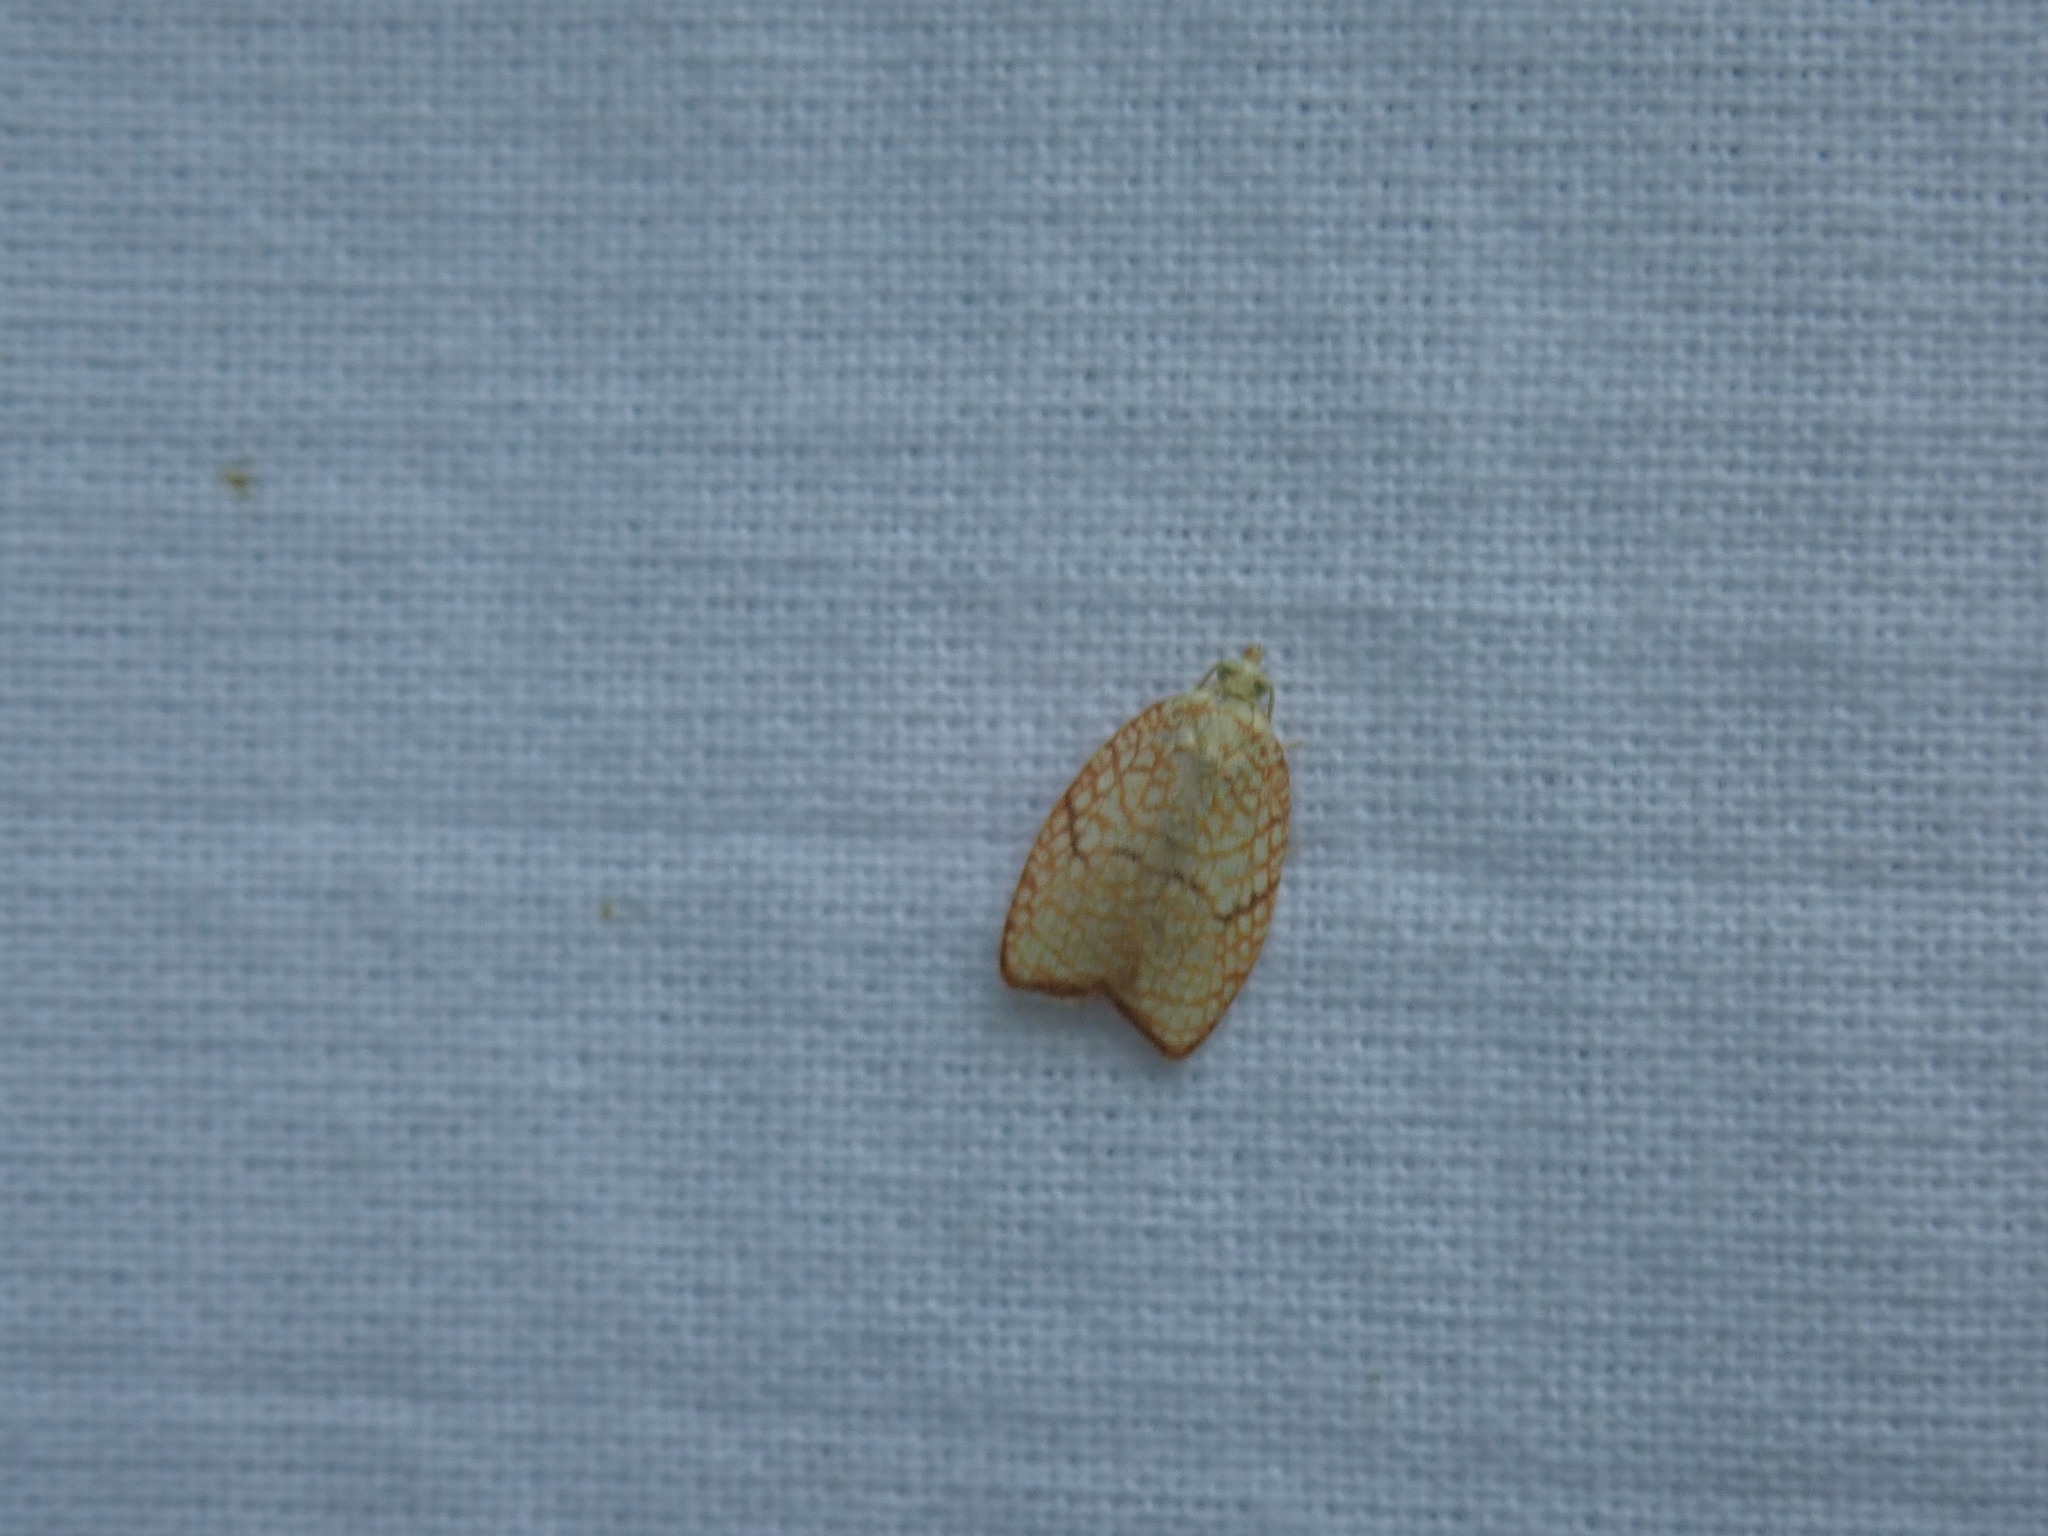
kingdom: Animalia
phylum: Arthropoda
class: Insecta
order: Lepidoptera
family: Tortricidae
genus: Acleris
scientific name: Acleris forsskaleana
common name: Maple button
